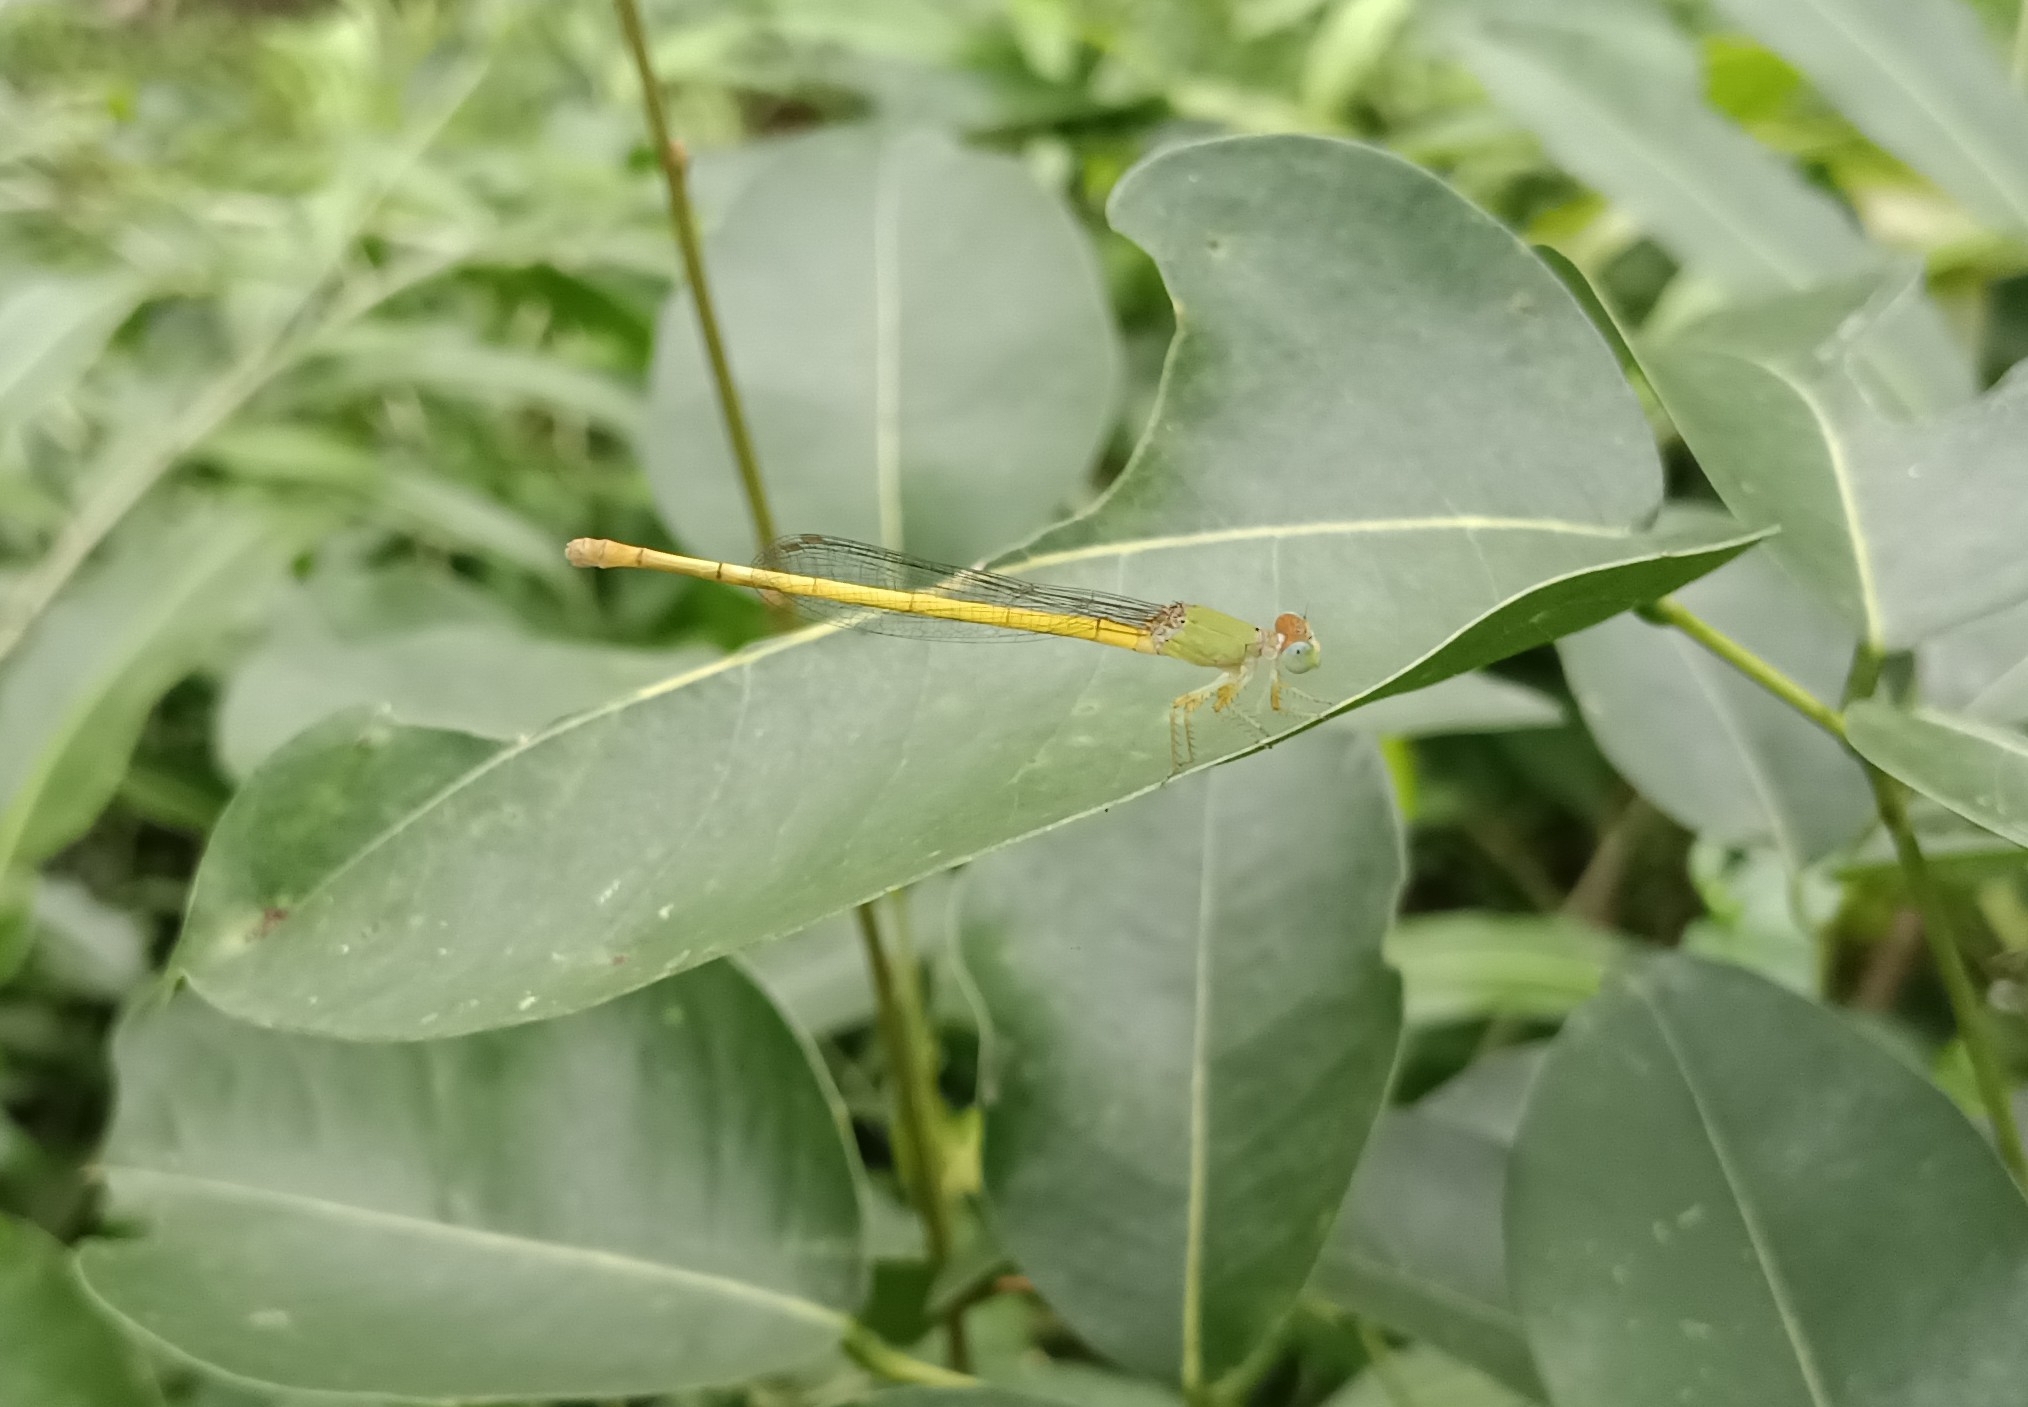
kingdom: Animalia
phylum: Arthropoda
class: Insecta
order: Odonata
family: Coenagrionidae
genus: Ceriagrion
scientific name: Ceriagrion coromandelianum
